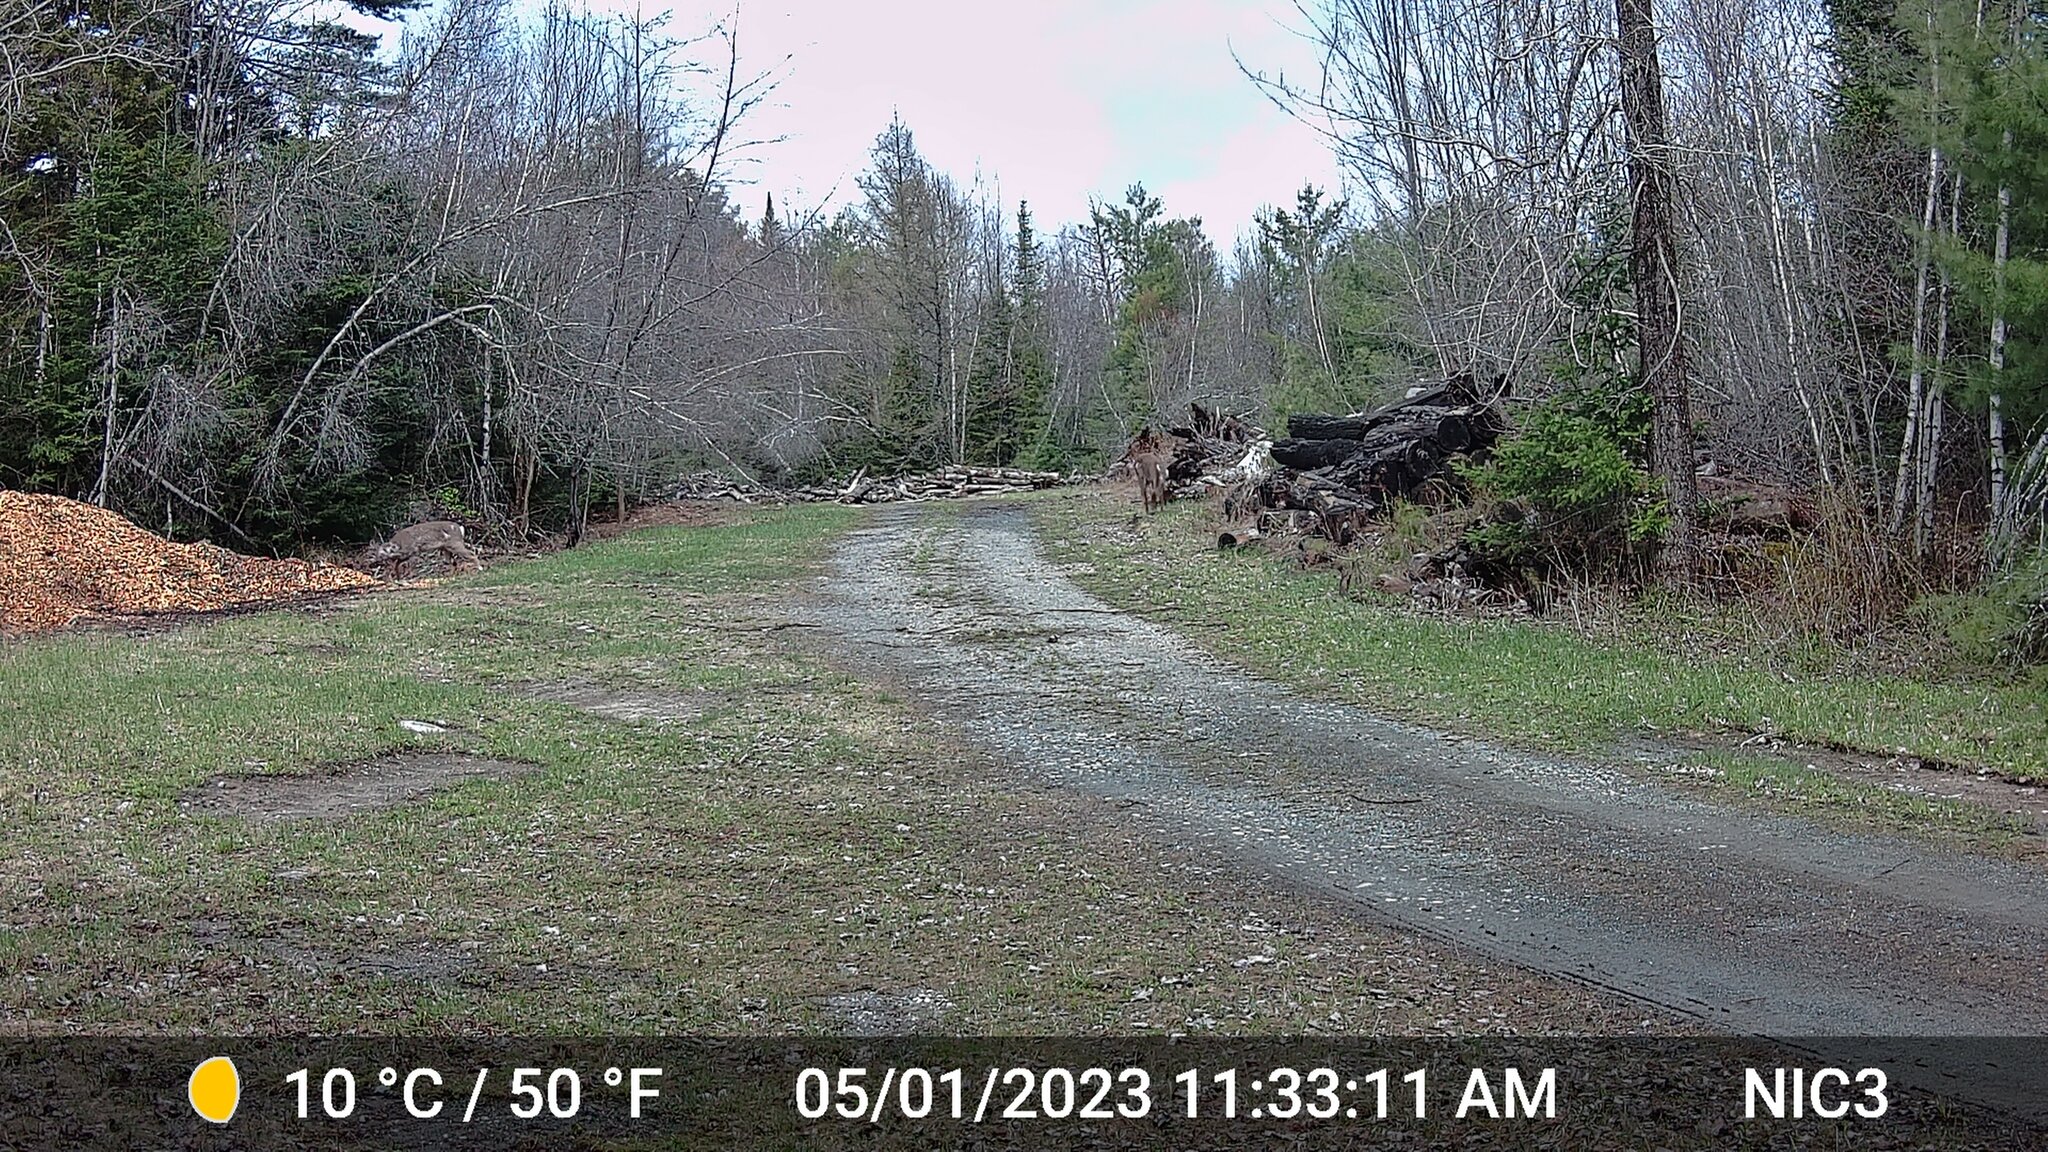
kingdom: Animalia
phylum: Chordata
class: Mammalia
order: Artiodactyla
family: Cervidae
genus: Odocoileus
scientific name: Odocoileus virginianus
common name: White-tailed deer
